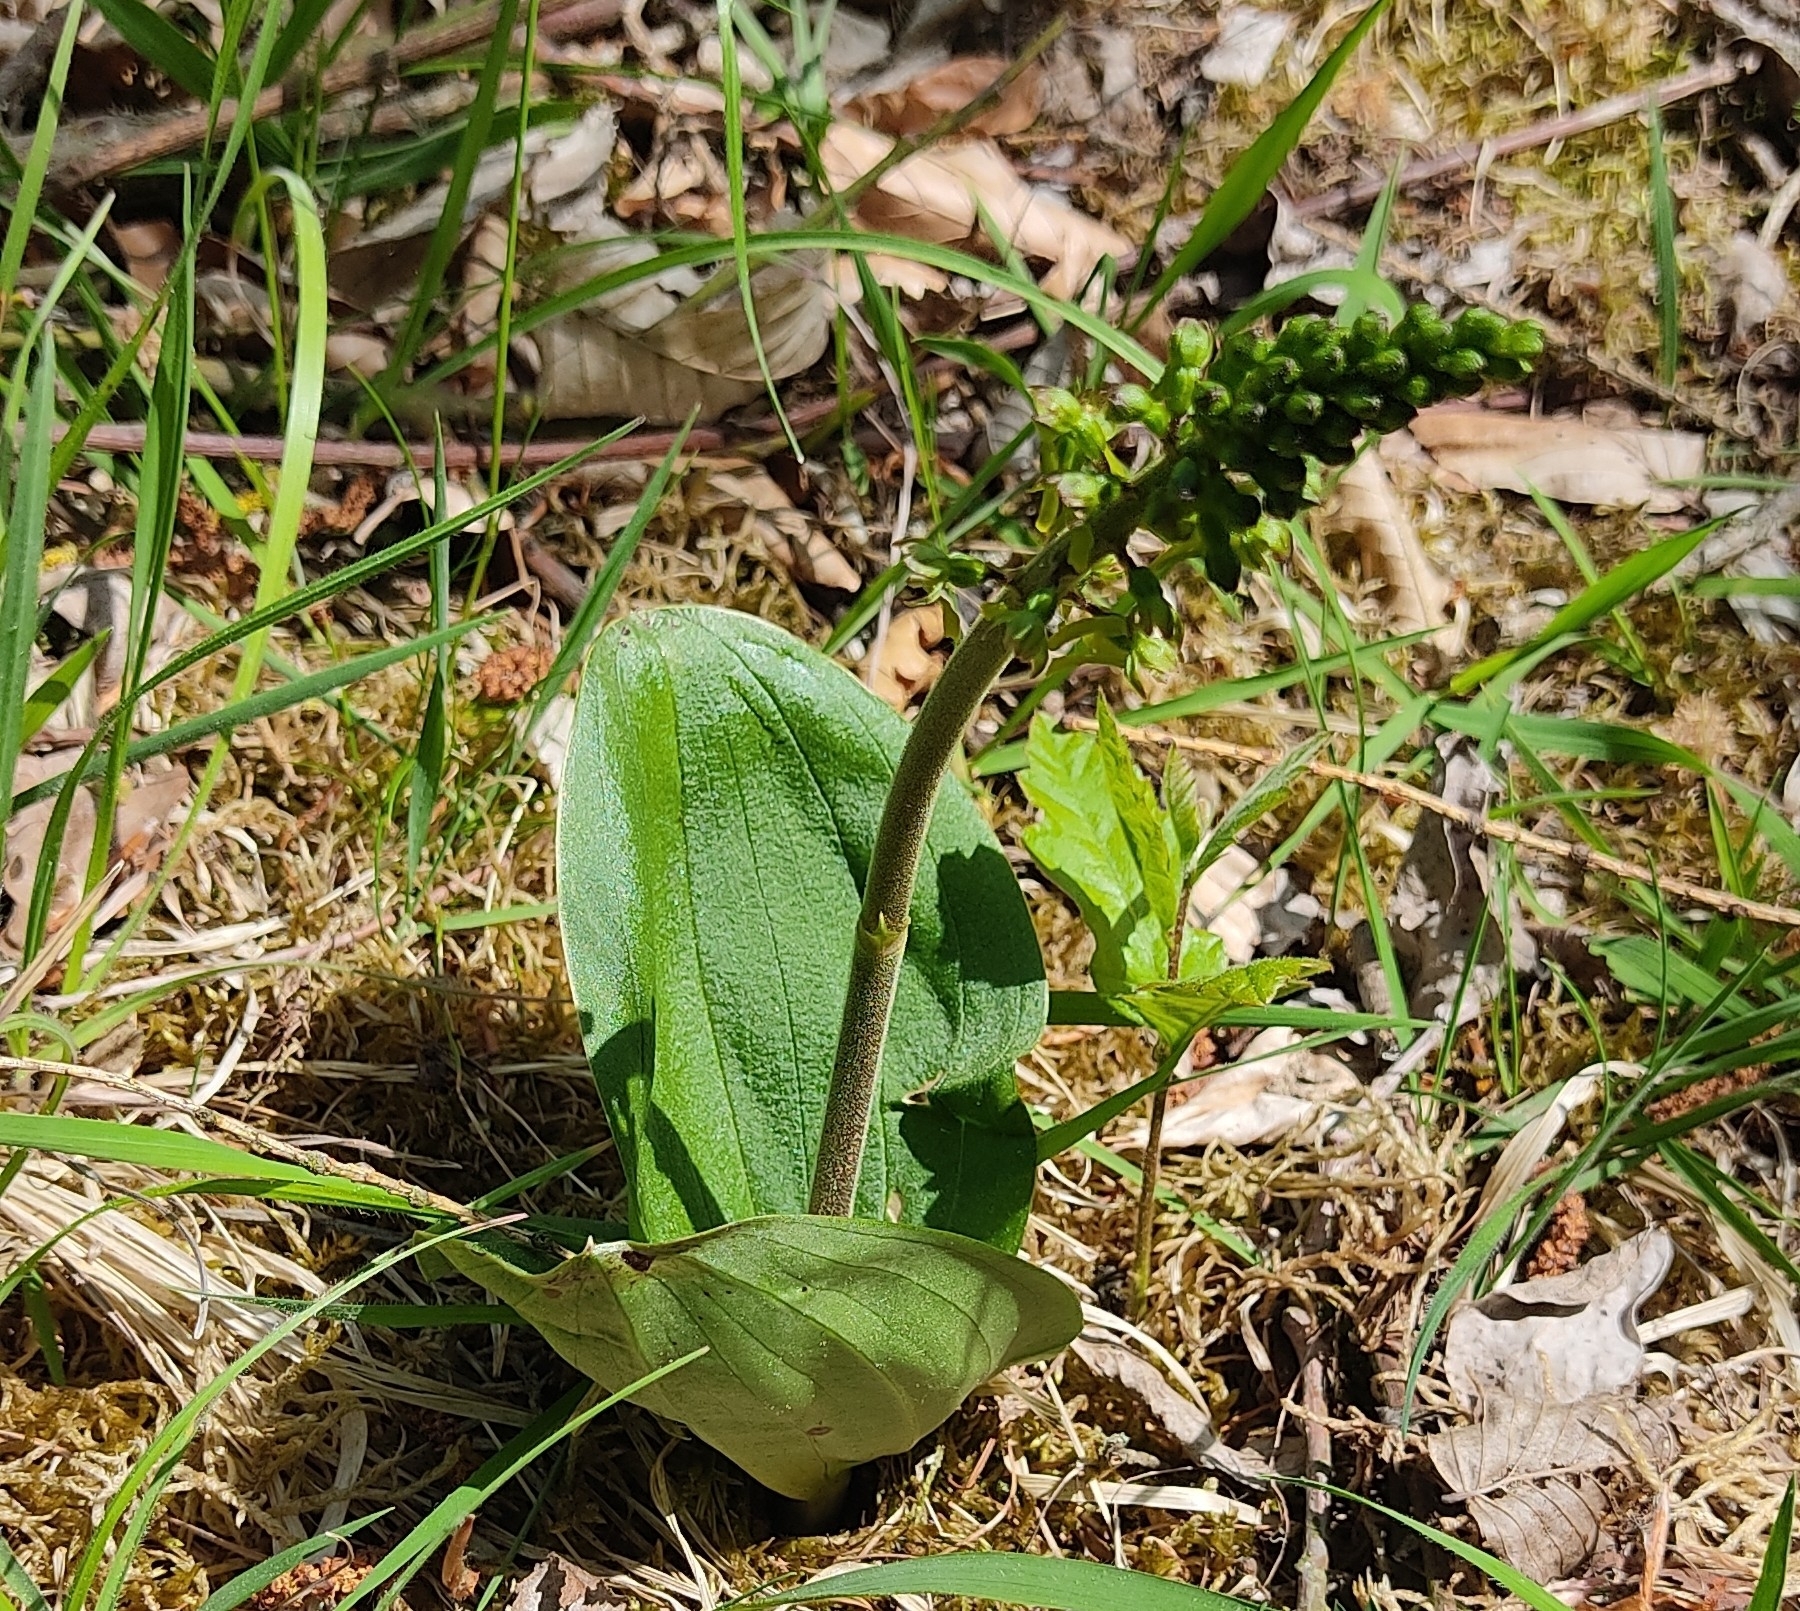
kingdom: Plantae
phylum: Tracheophyta
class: Liliopsida
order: Asparagales
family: Orchidaceae
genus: Neottia
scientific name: Neottia ovata
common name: Common twayblade
